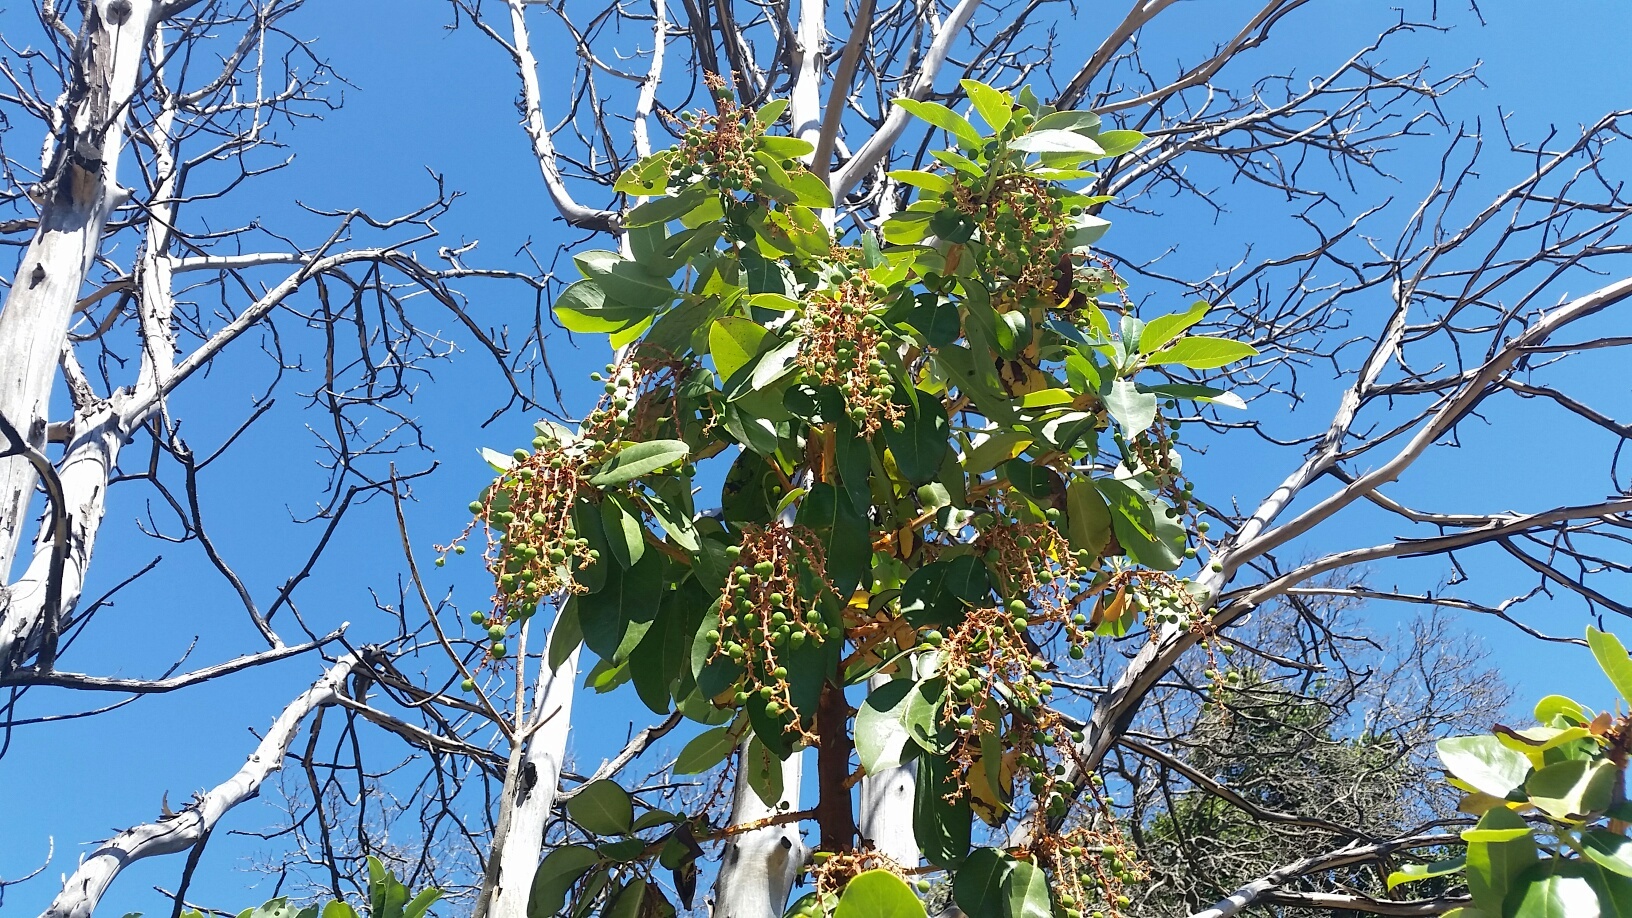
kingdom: Plantae
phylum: Tracheophyta
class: Magnoliopsida
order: Ericales
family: Ericaceae
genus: Arbutus
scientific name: Arbutus menziesii
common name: Pacific madrone
